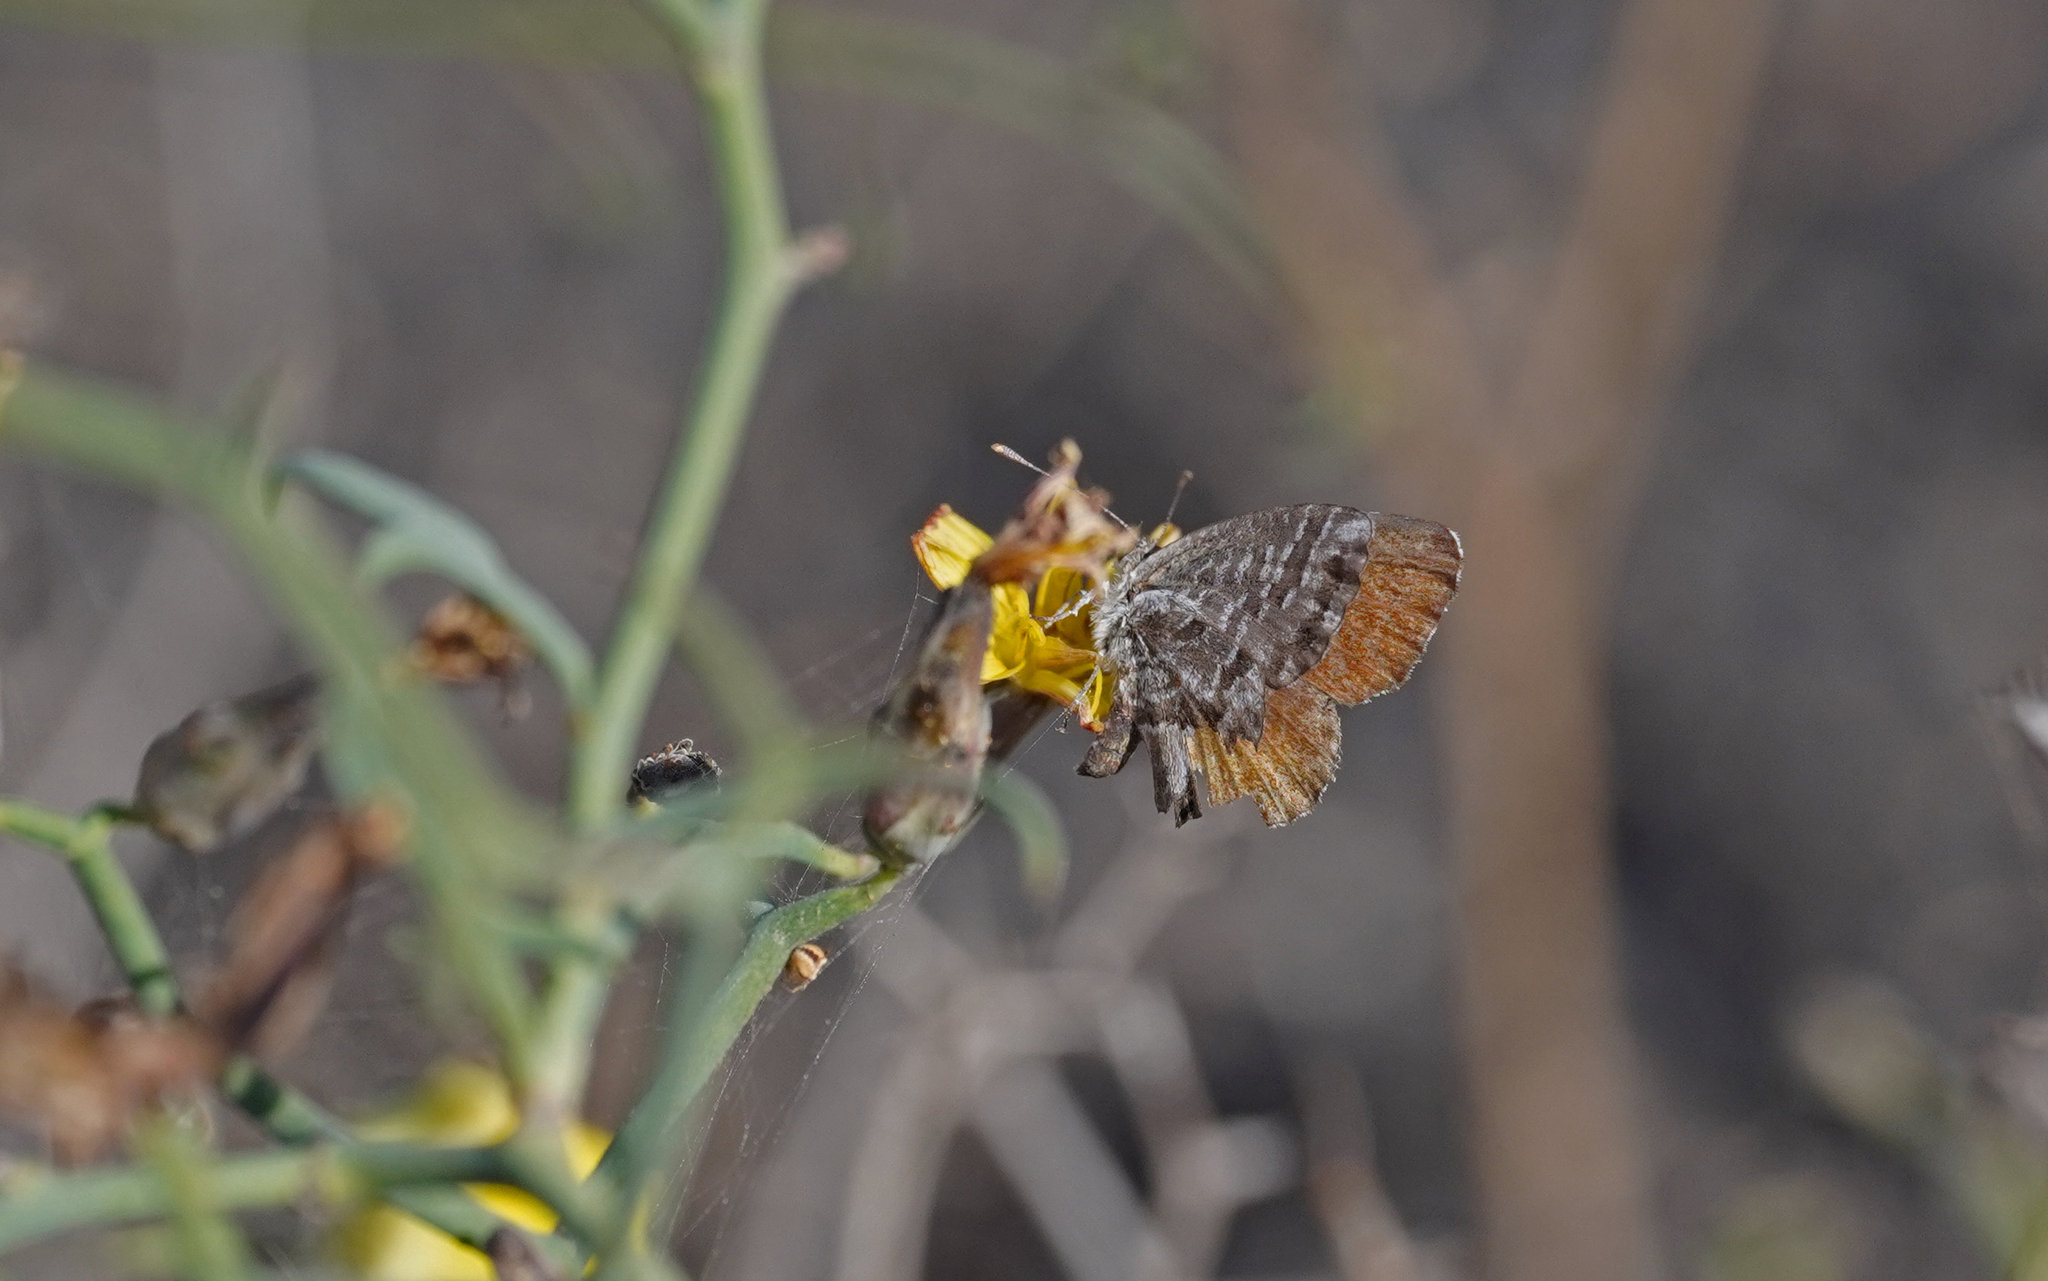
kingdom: Animalia
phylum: Arthropoda
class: Insecta
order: Lepidoptera
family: Lycaenidae
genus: Cacyreus
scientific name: Cacyreus marshalli
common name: Geranium bronze
